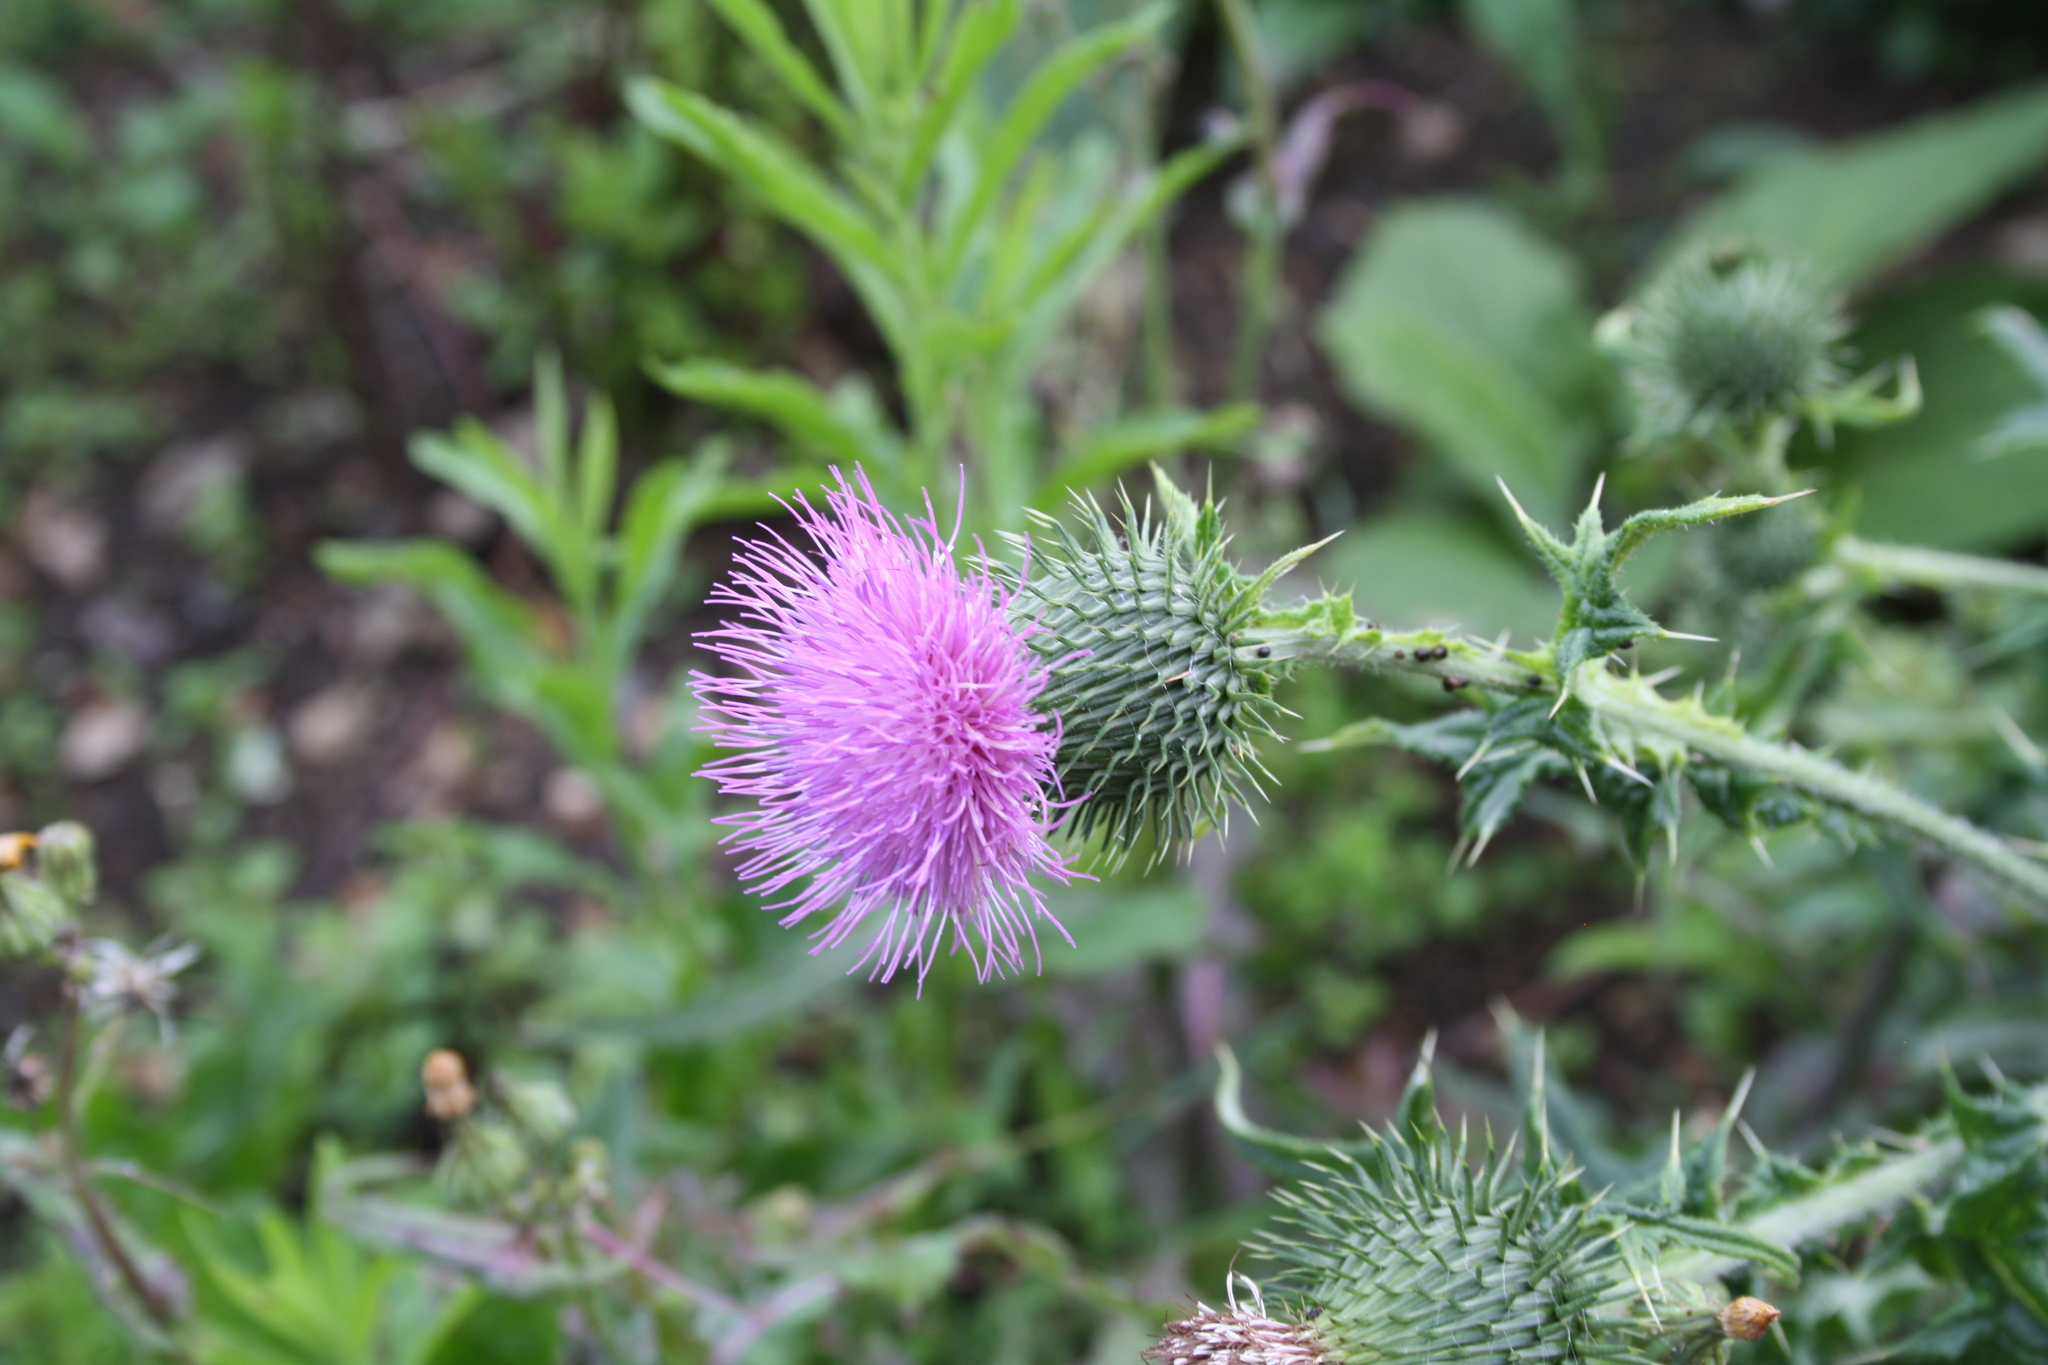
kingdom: Plantae
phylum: Tracheophyta
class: Magnoliopsida
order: Asterales
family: Asteraceae
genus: Cirsium
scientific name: Cirsium vulgare
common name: Bull thistle
